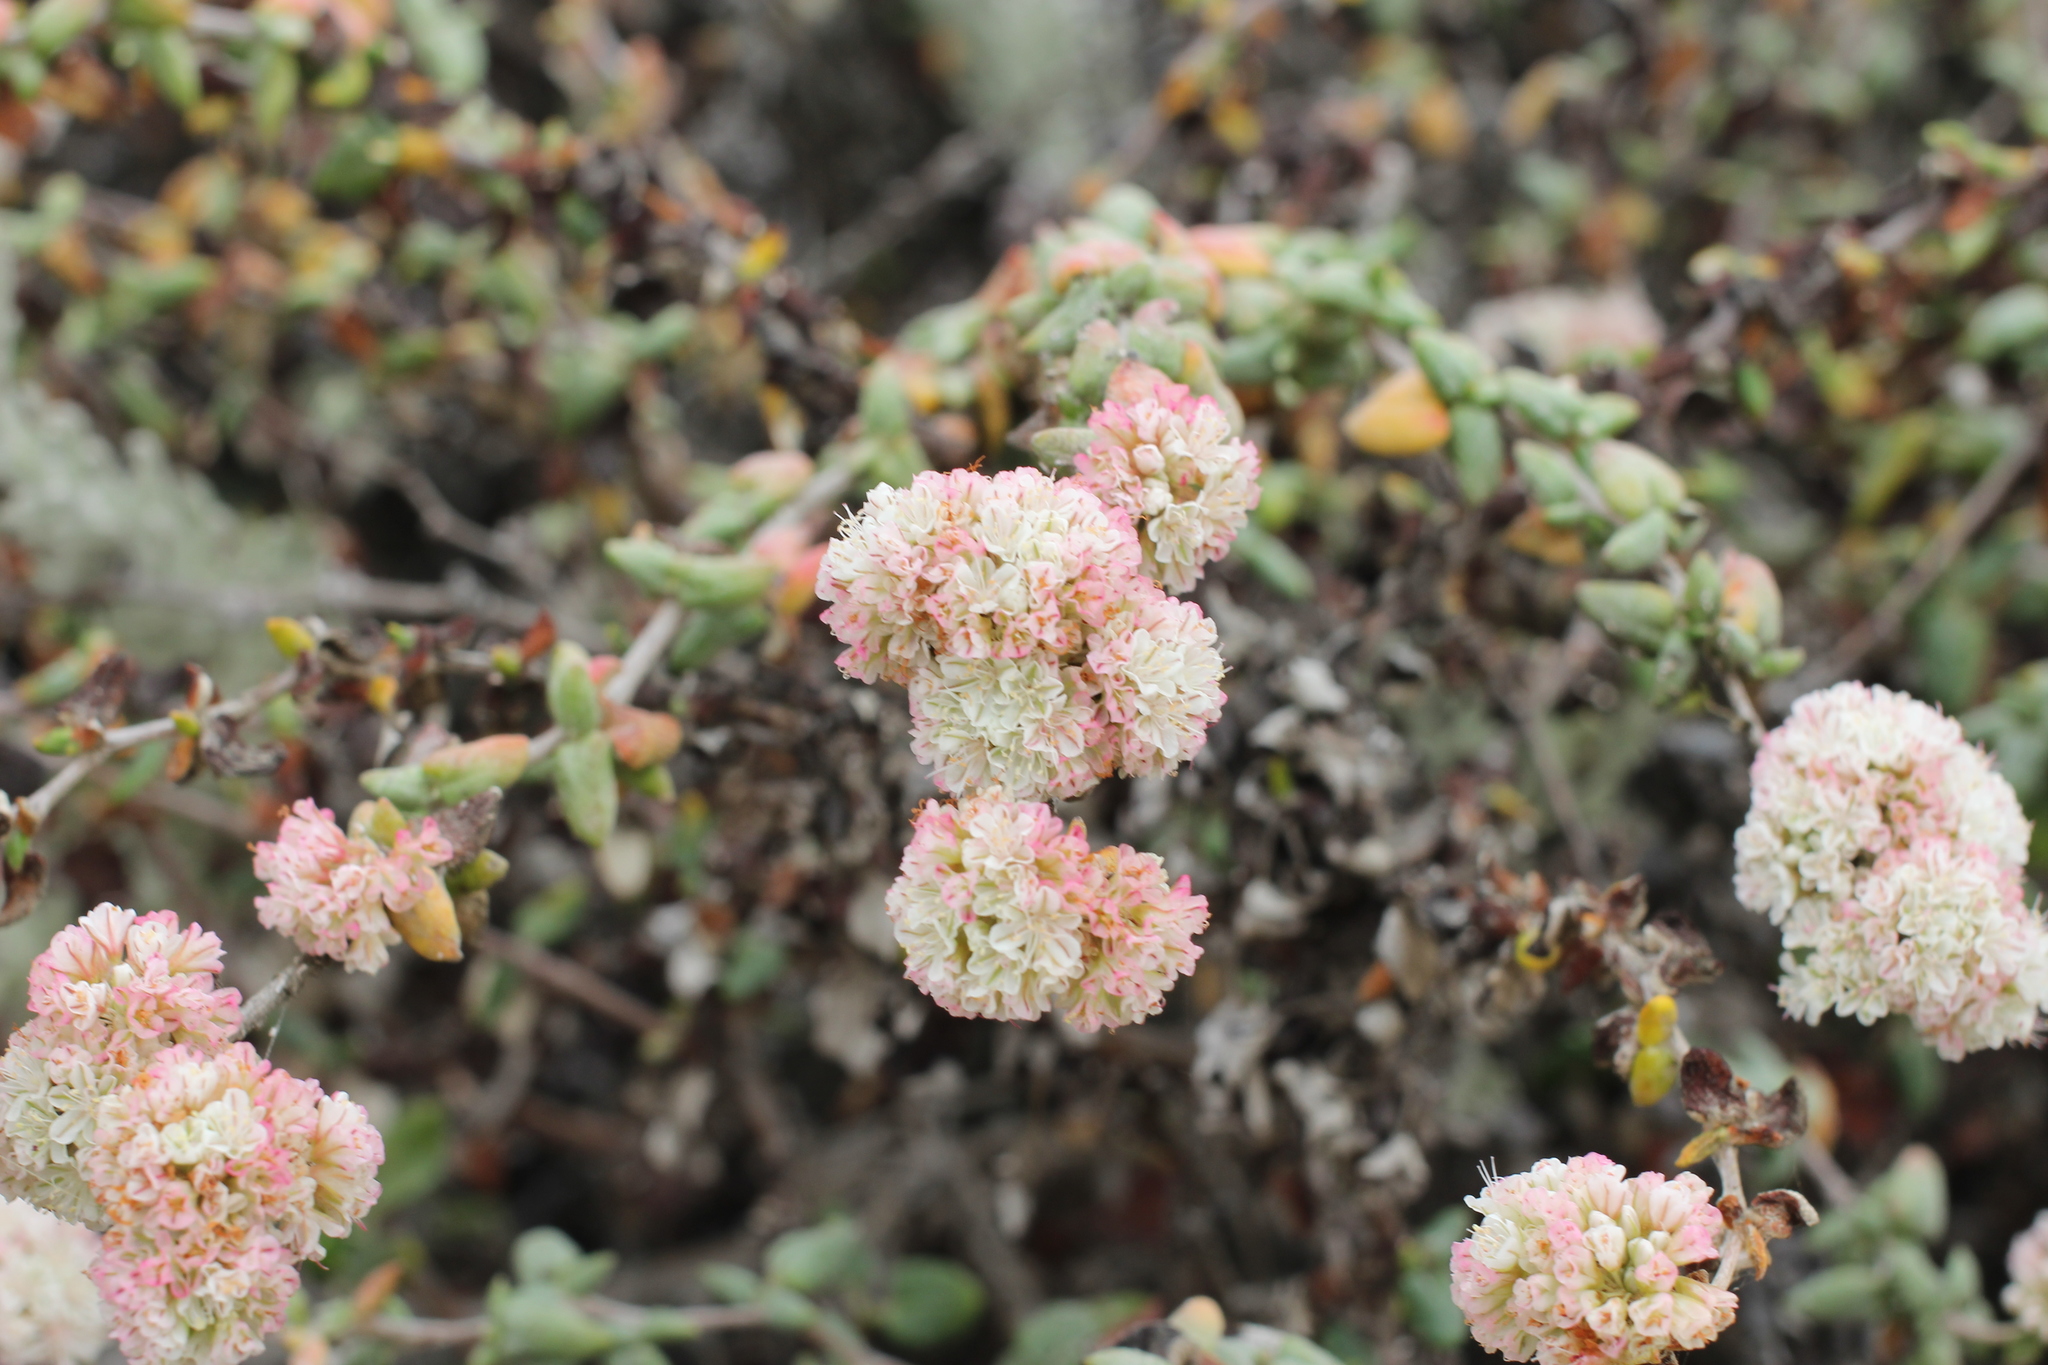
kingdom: Plantae
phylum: Tracheophyta
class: Magnoliopsida
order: Caryophyllales
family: Polygonaceae
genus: Eriogonum
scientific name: Eriogonum parvifolium
